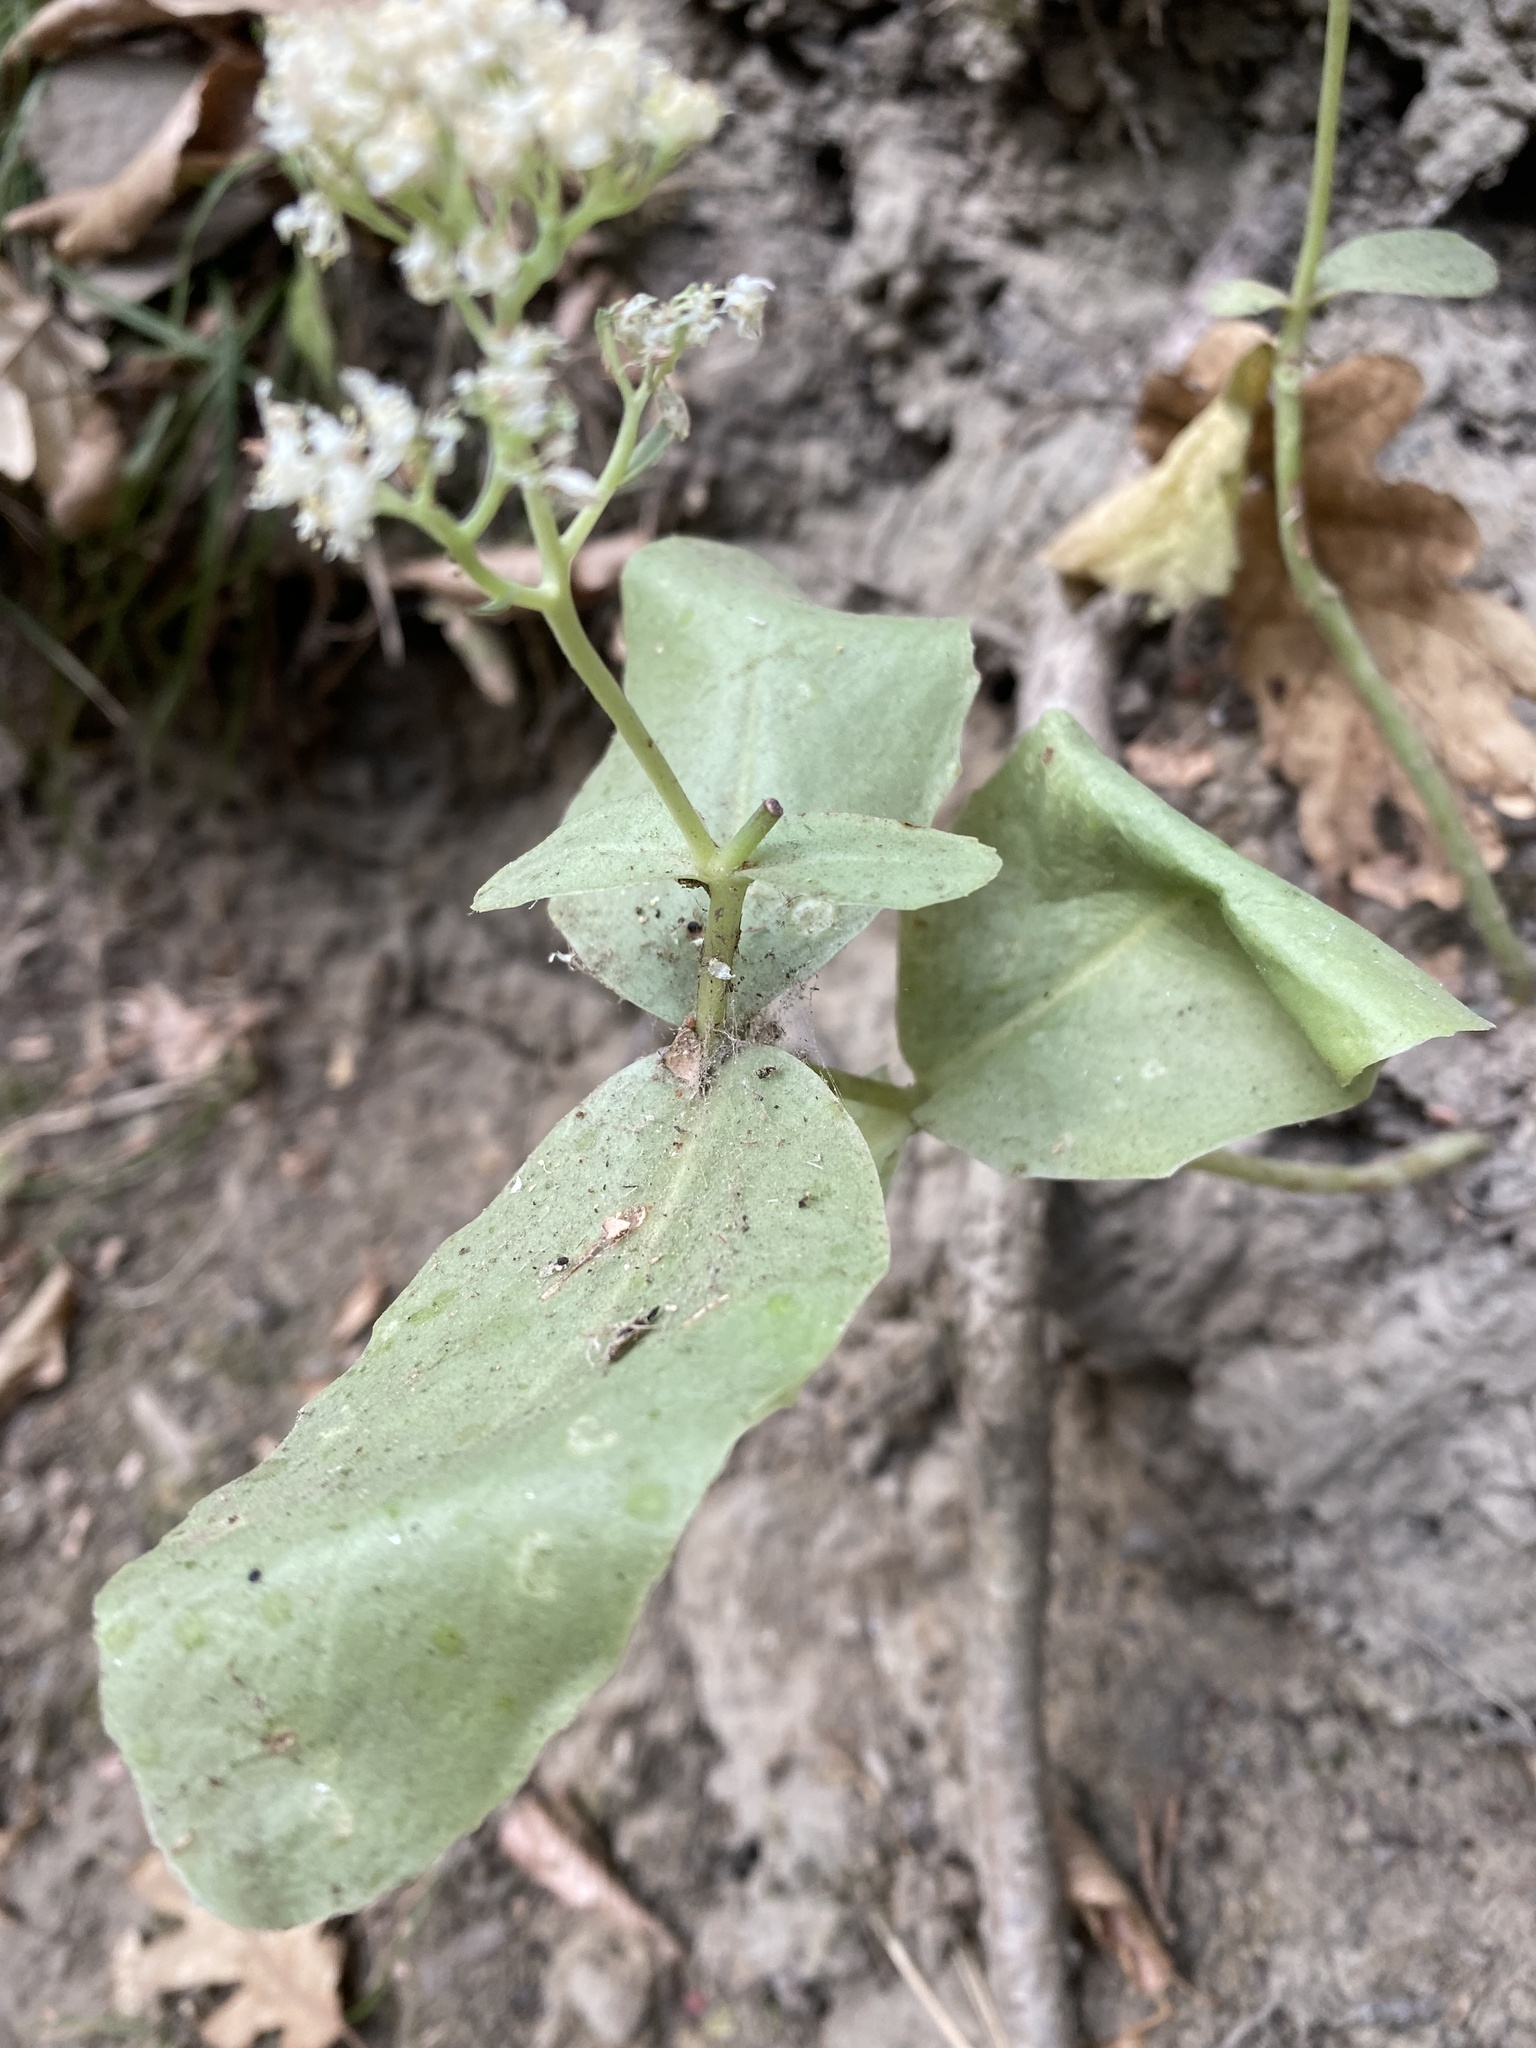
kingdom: Plantae
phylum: Tracheophyta
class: Magnoliopsida
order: Saxifragales
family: Crassulaceae
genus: Hylotelephium
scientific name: Hylotelephium maximum
